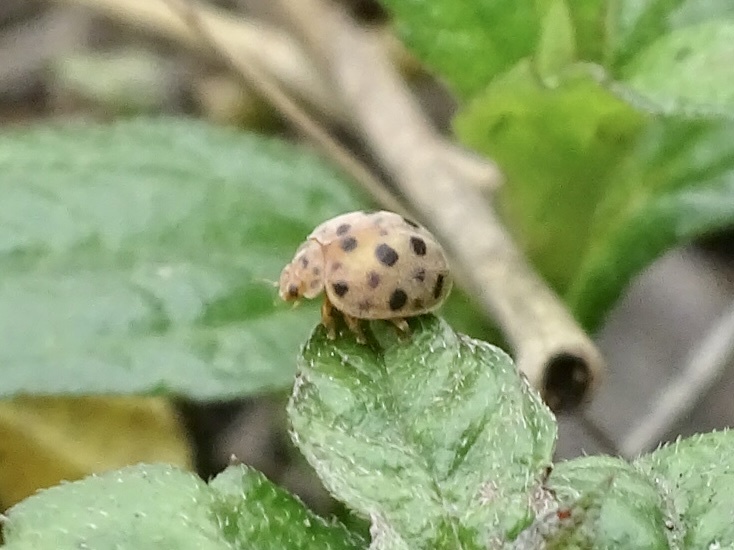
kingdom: Animalia
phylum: Arthropoda
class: Insecta
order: Coleoptera
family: Coccinellidae
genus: Henosepilachna
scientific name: Henosepilachna vigintioctopunctata
